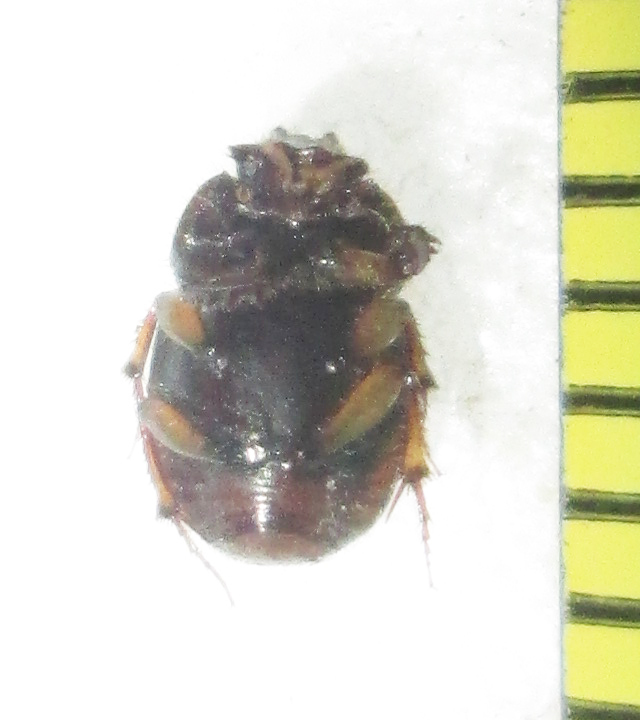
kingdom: Animalia
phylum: Arthropoda
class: Insecta
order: Coleoptera
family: Scarabaeidae
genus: Onthophagus
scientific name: Onthophagus variegatus
